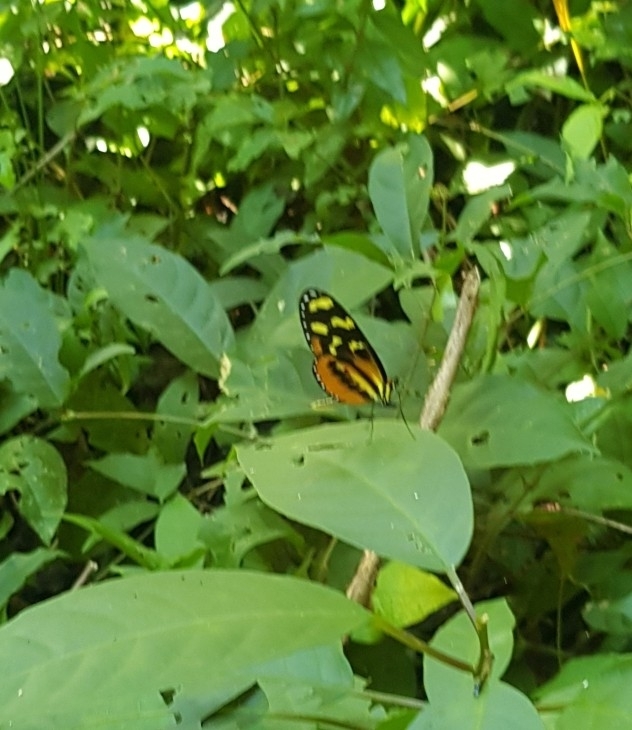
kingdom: Animalia
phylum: Arthropoda
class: Insecta
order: Lepidoptera
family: Nymphalidae
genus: Mechanitis
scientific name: Mechanitis polymnia
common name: Disturbed tigerwing
